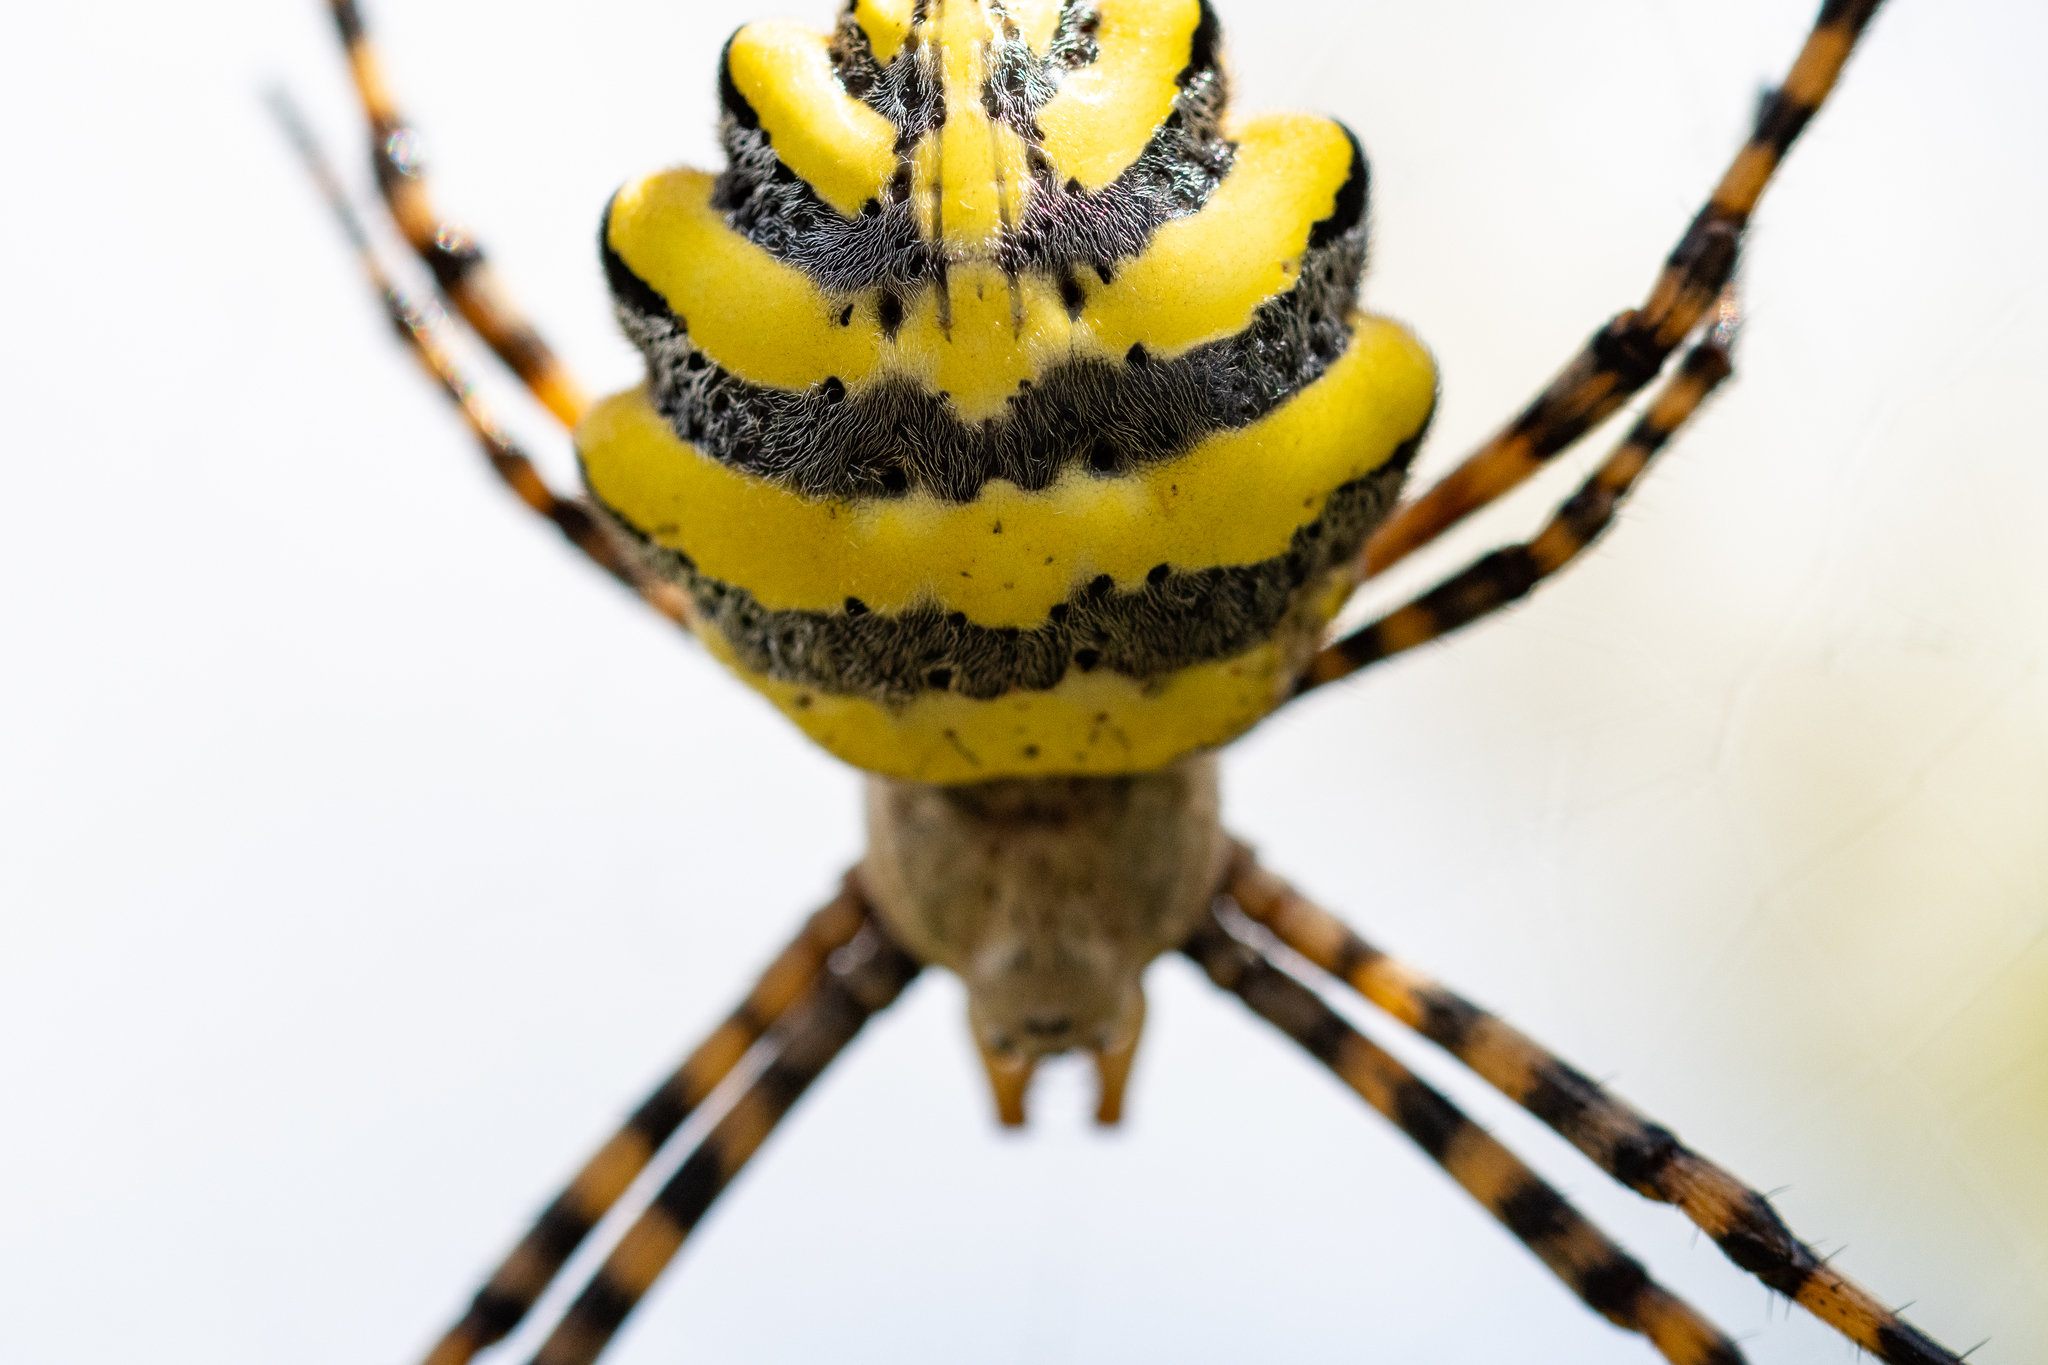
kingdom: Animalia
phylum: Arthropoda
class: Arachnida
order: Araneae
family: Araneidae
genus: Argiope
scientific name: Argiope australis
